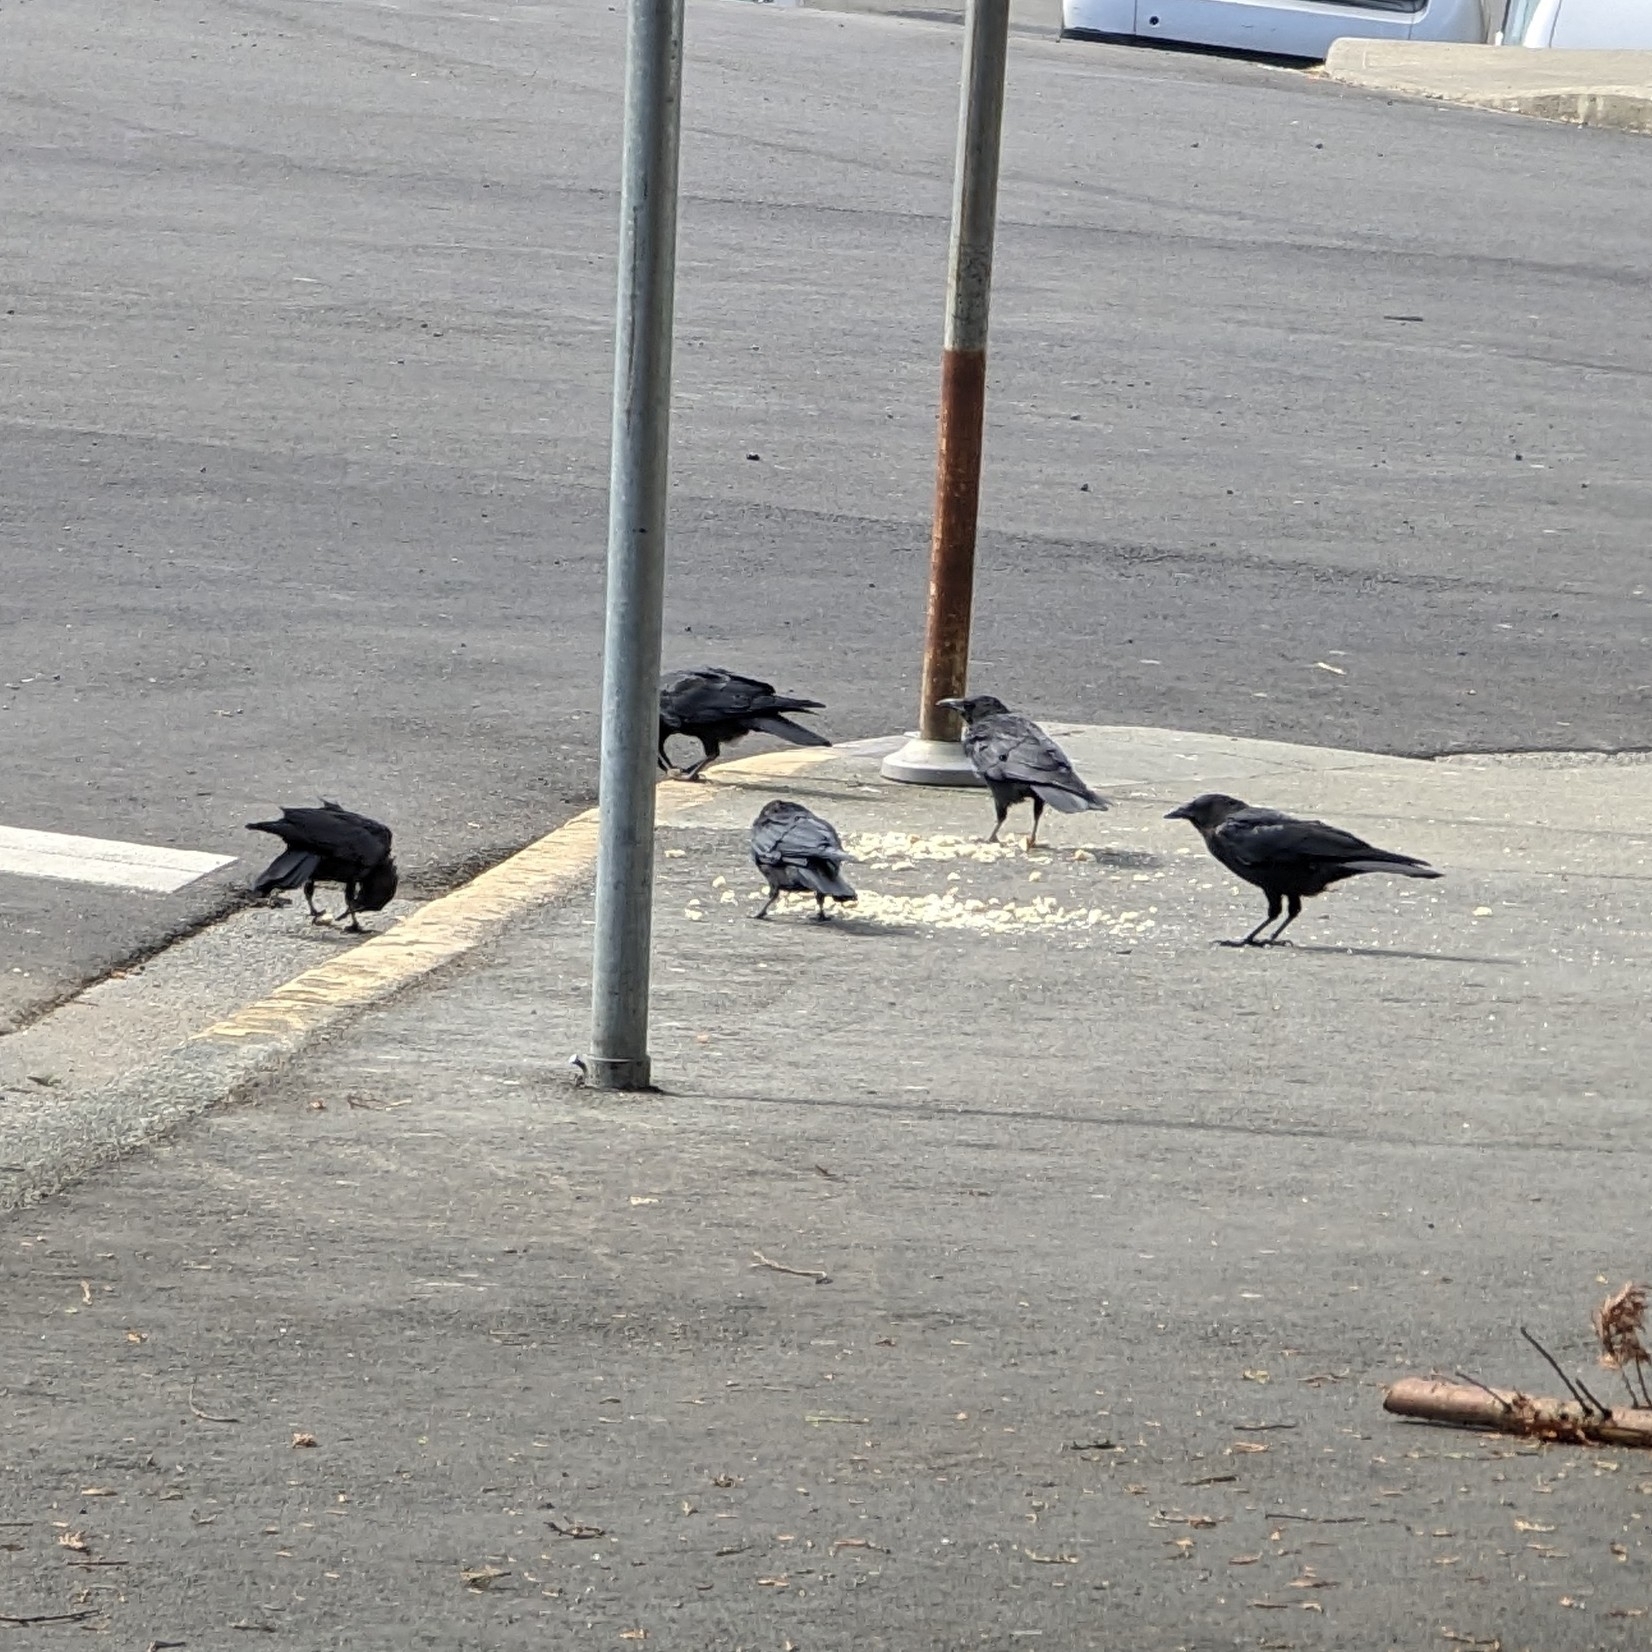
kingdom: Animalia
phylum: Chordata
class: Aves
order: Passeriformes
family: Corvidae
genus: Corvus
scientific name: Corvus brachyrhynchos
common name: American crow
